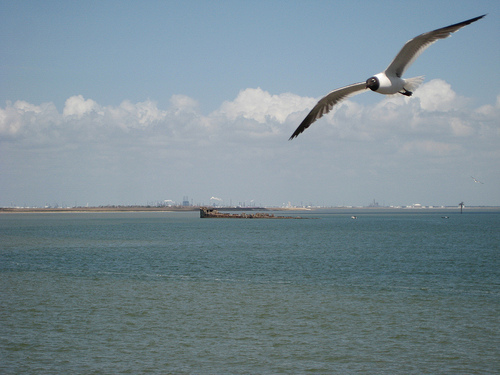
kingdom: Animalia
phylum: Chordata
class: Aves
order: Charadriiformes
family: Laridae
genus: Leucophaeus
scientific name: Leucophaeus atricilla
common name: Laughing gull
